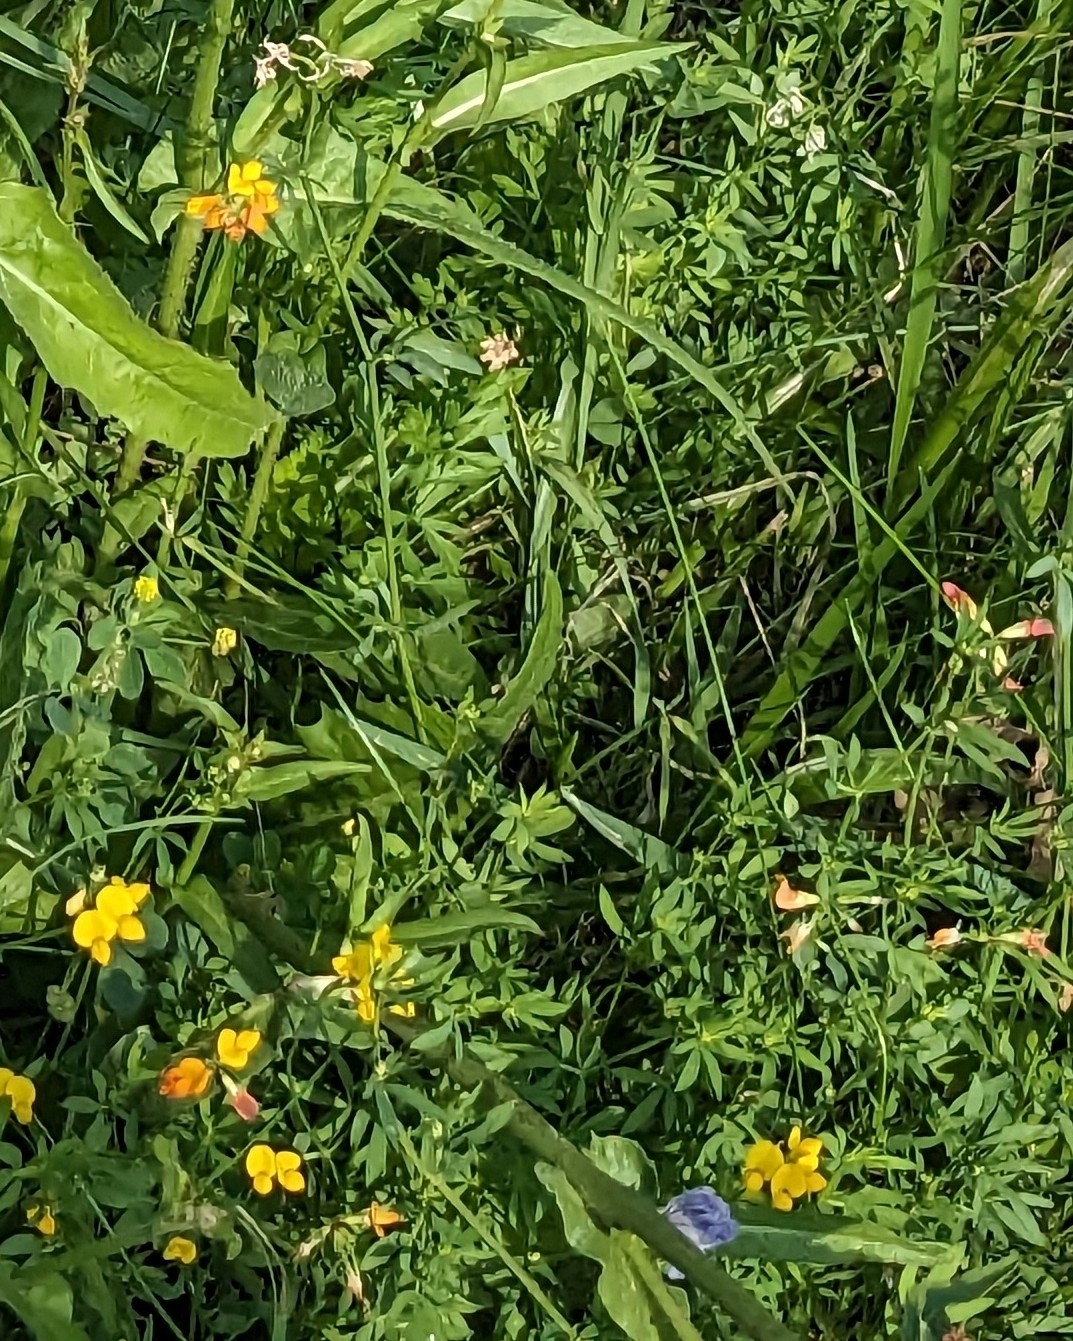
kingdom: Plantae
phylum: Tracheophyta
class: Magnoliopsida
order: Fabales
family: Fabaceae
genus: Lotus
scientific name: Lotus corniculatus
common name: Common bird's-foot-trefoil
